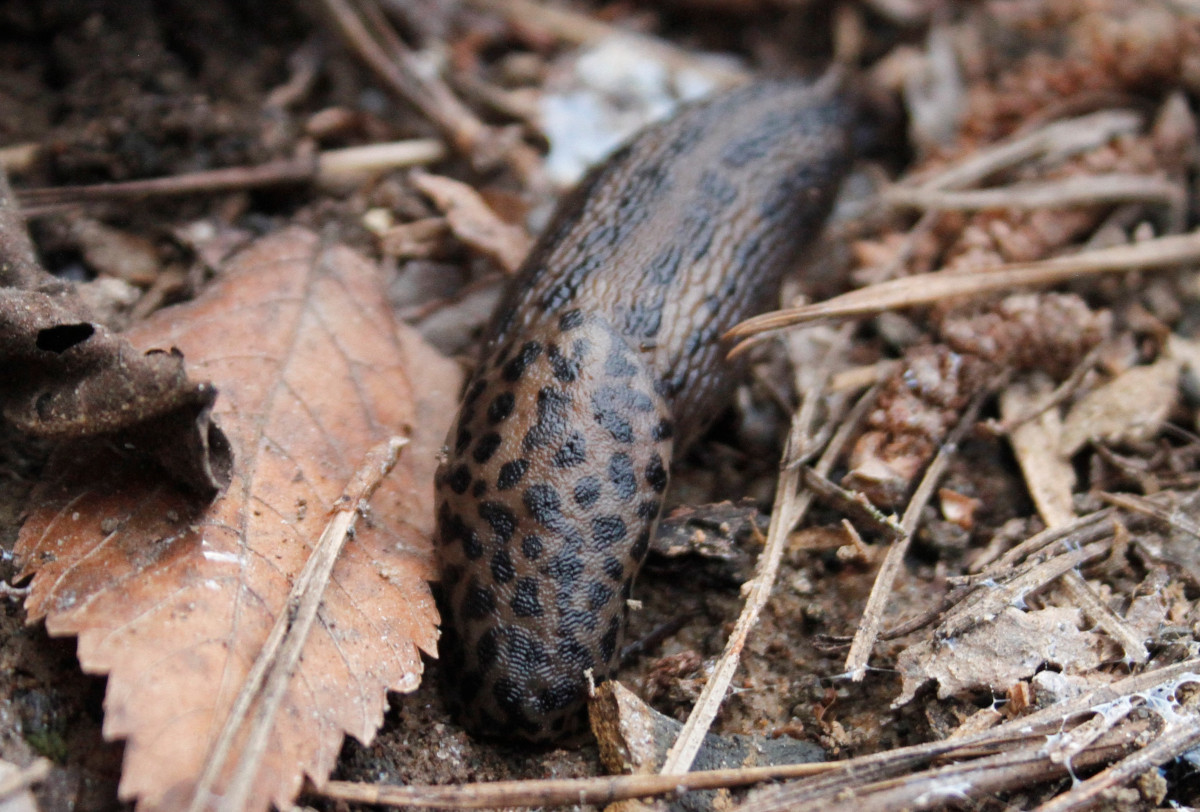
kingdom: Animalia
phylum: Mollusca
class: Gastropoda
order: Stylommatophora
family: Limacidae
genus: Limax
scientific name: Limax maximus
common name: Great grey slug
